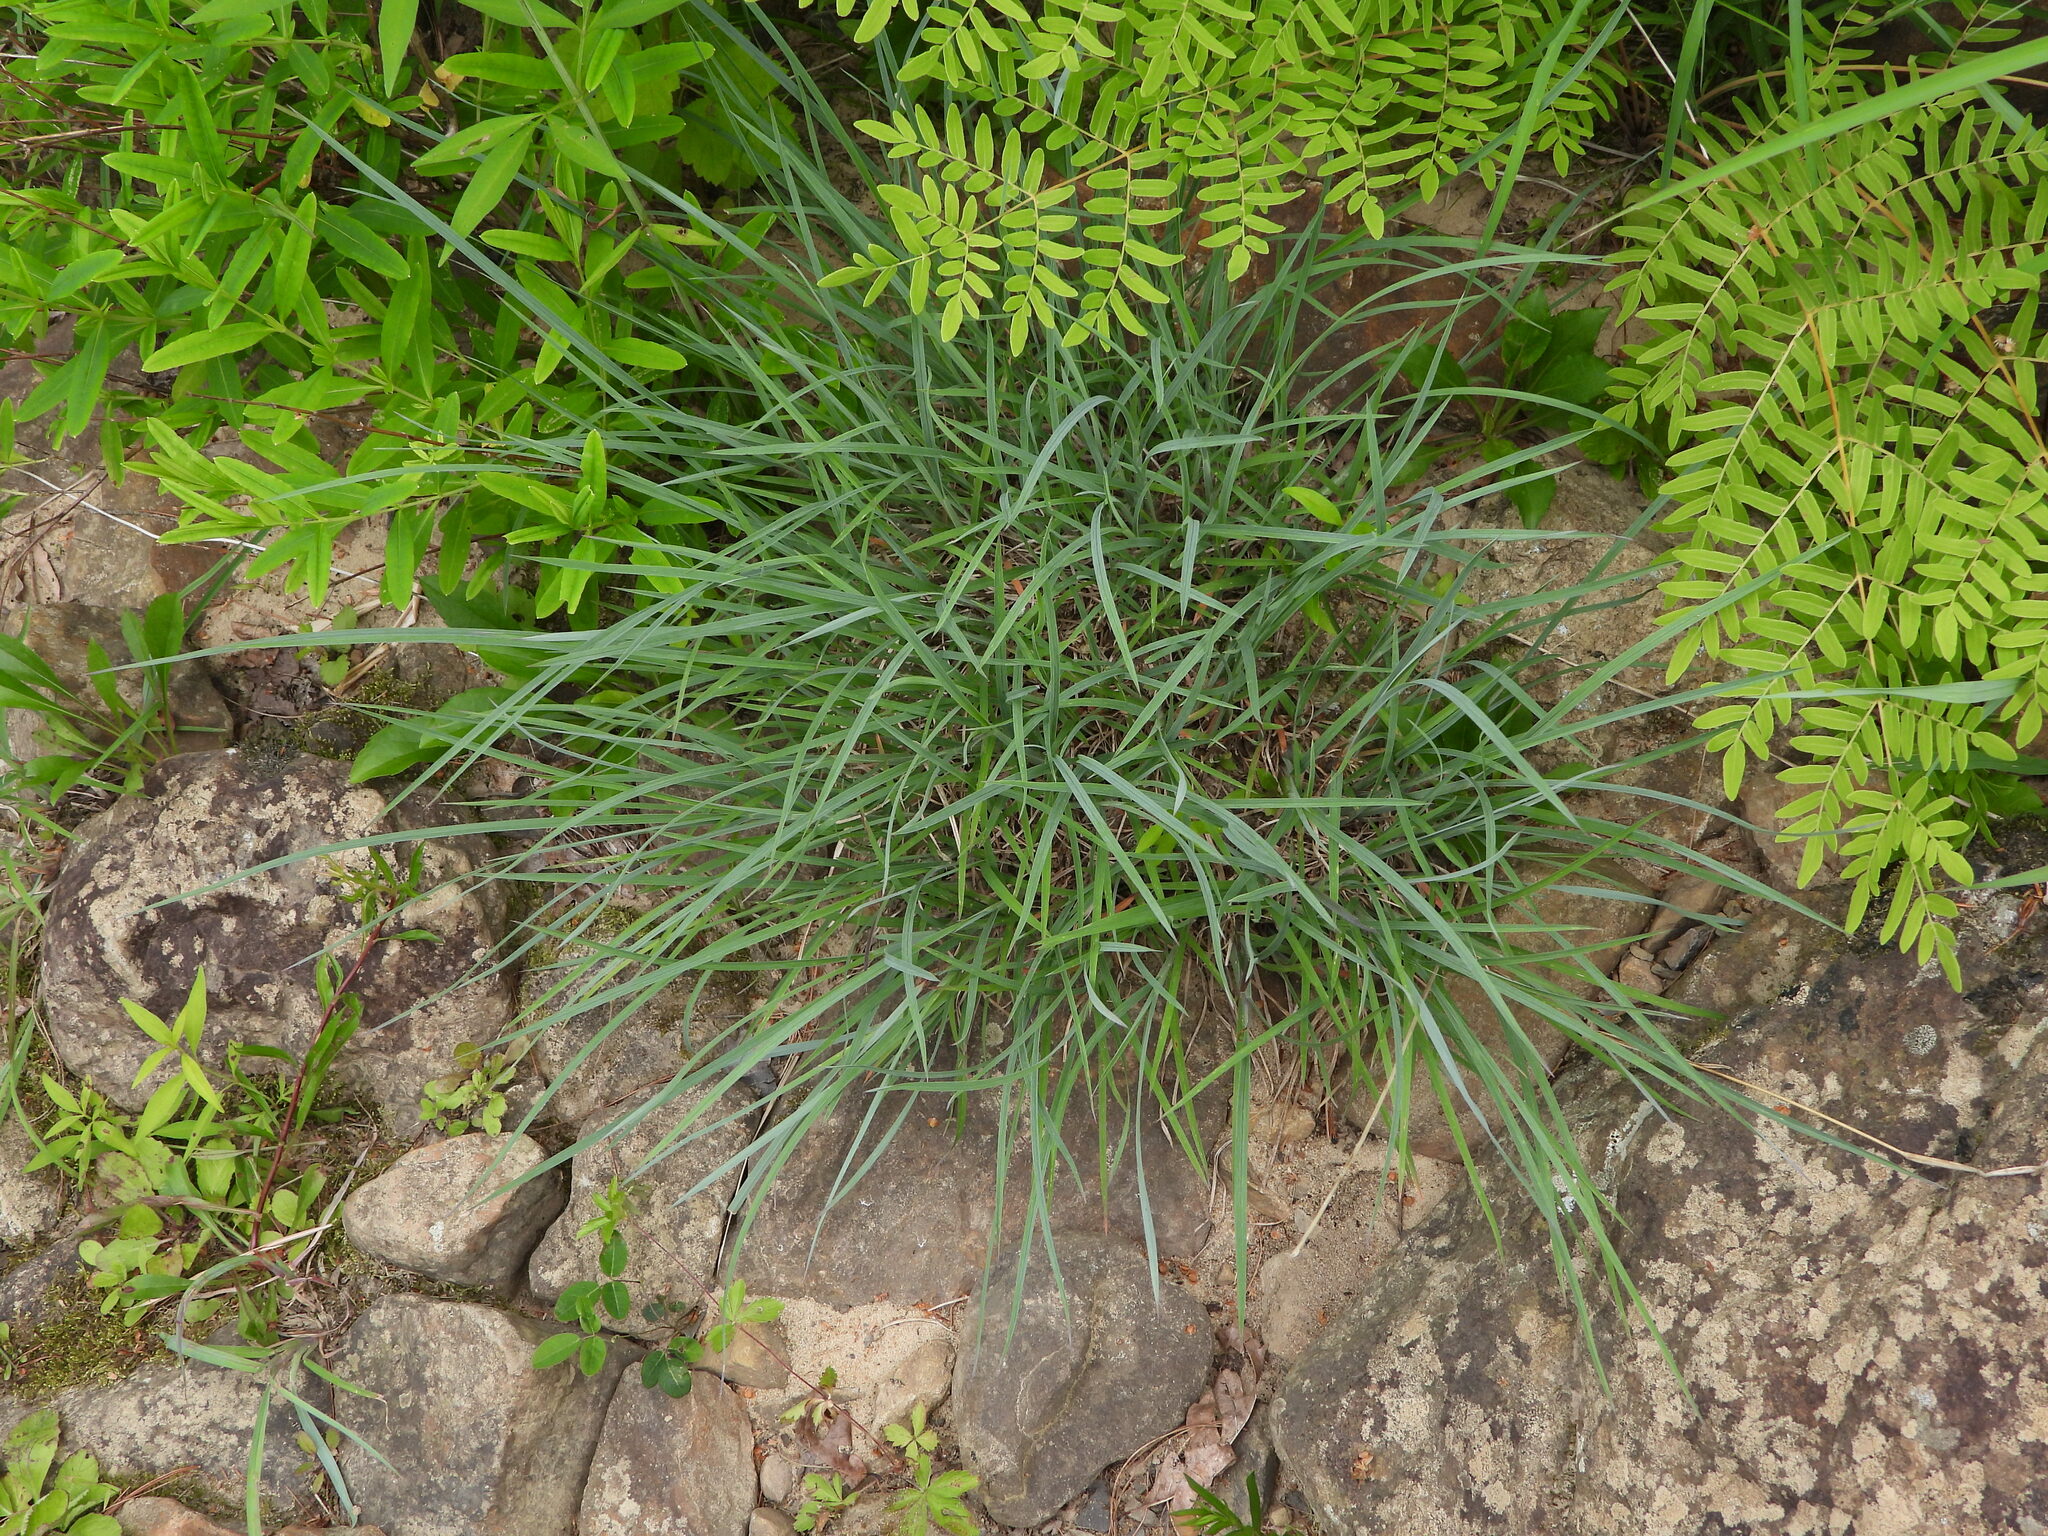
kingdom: Plantae
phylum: Tracheophyta
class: Liliopsida
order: Poales
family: Poaceae
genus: Andropogon
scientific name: Andropogon gerardi
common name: Big bluestem
